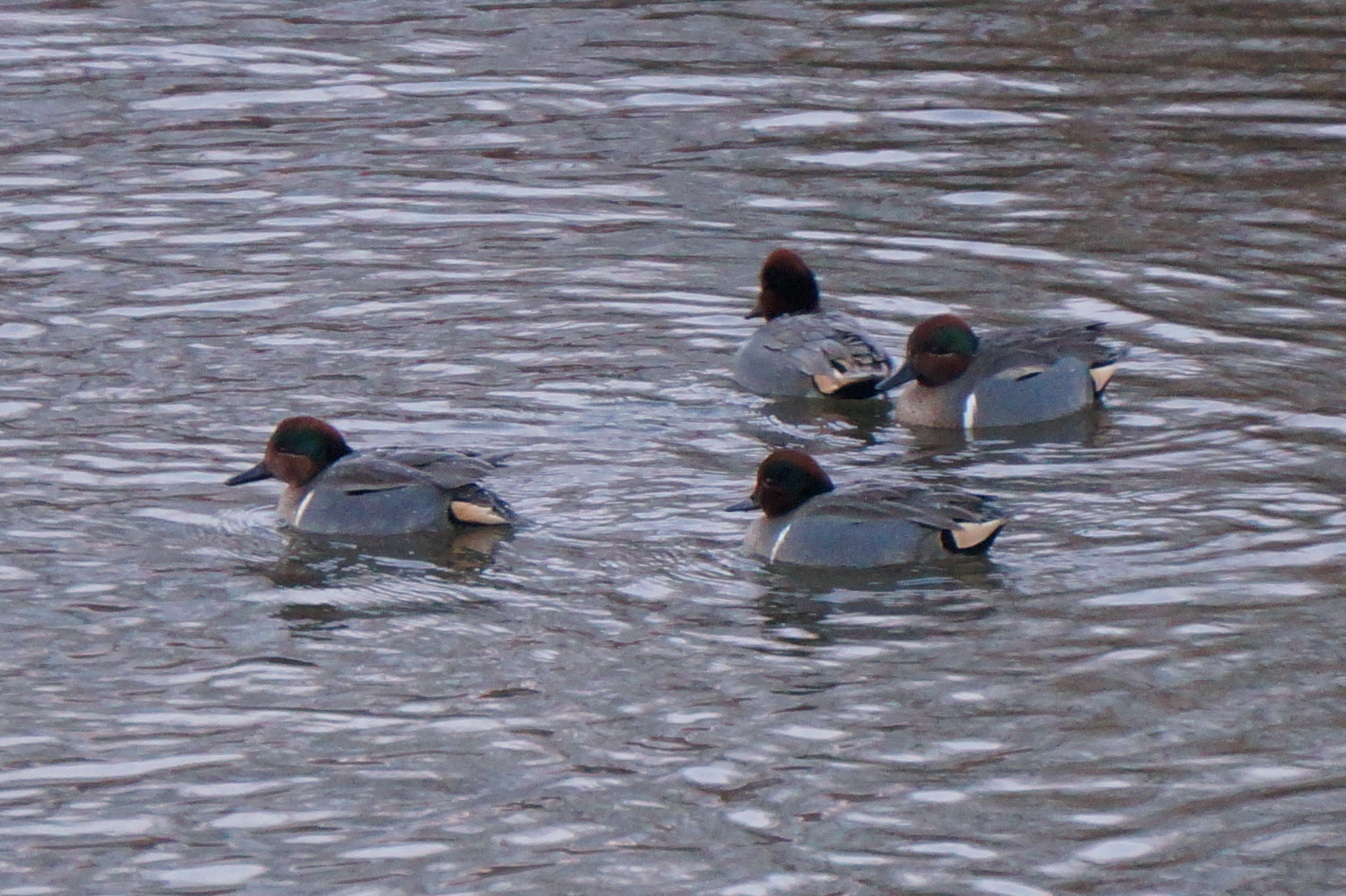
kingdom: Animalia
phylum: Chordata
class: Aves
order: Anseriformes
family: Anatidae
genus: Anas
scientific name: Anas crecca
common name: Eurasian teal
